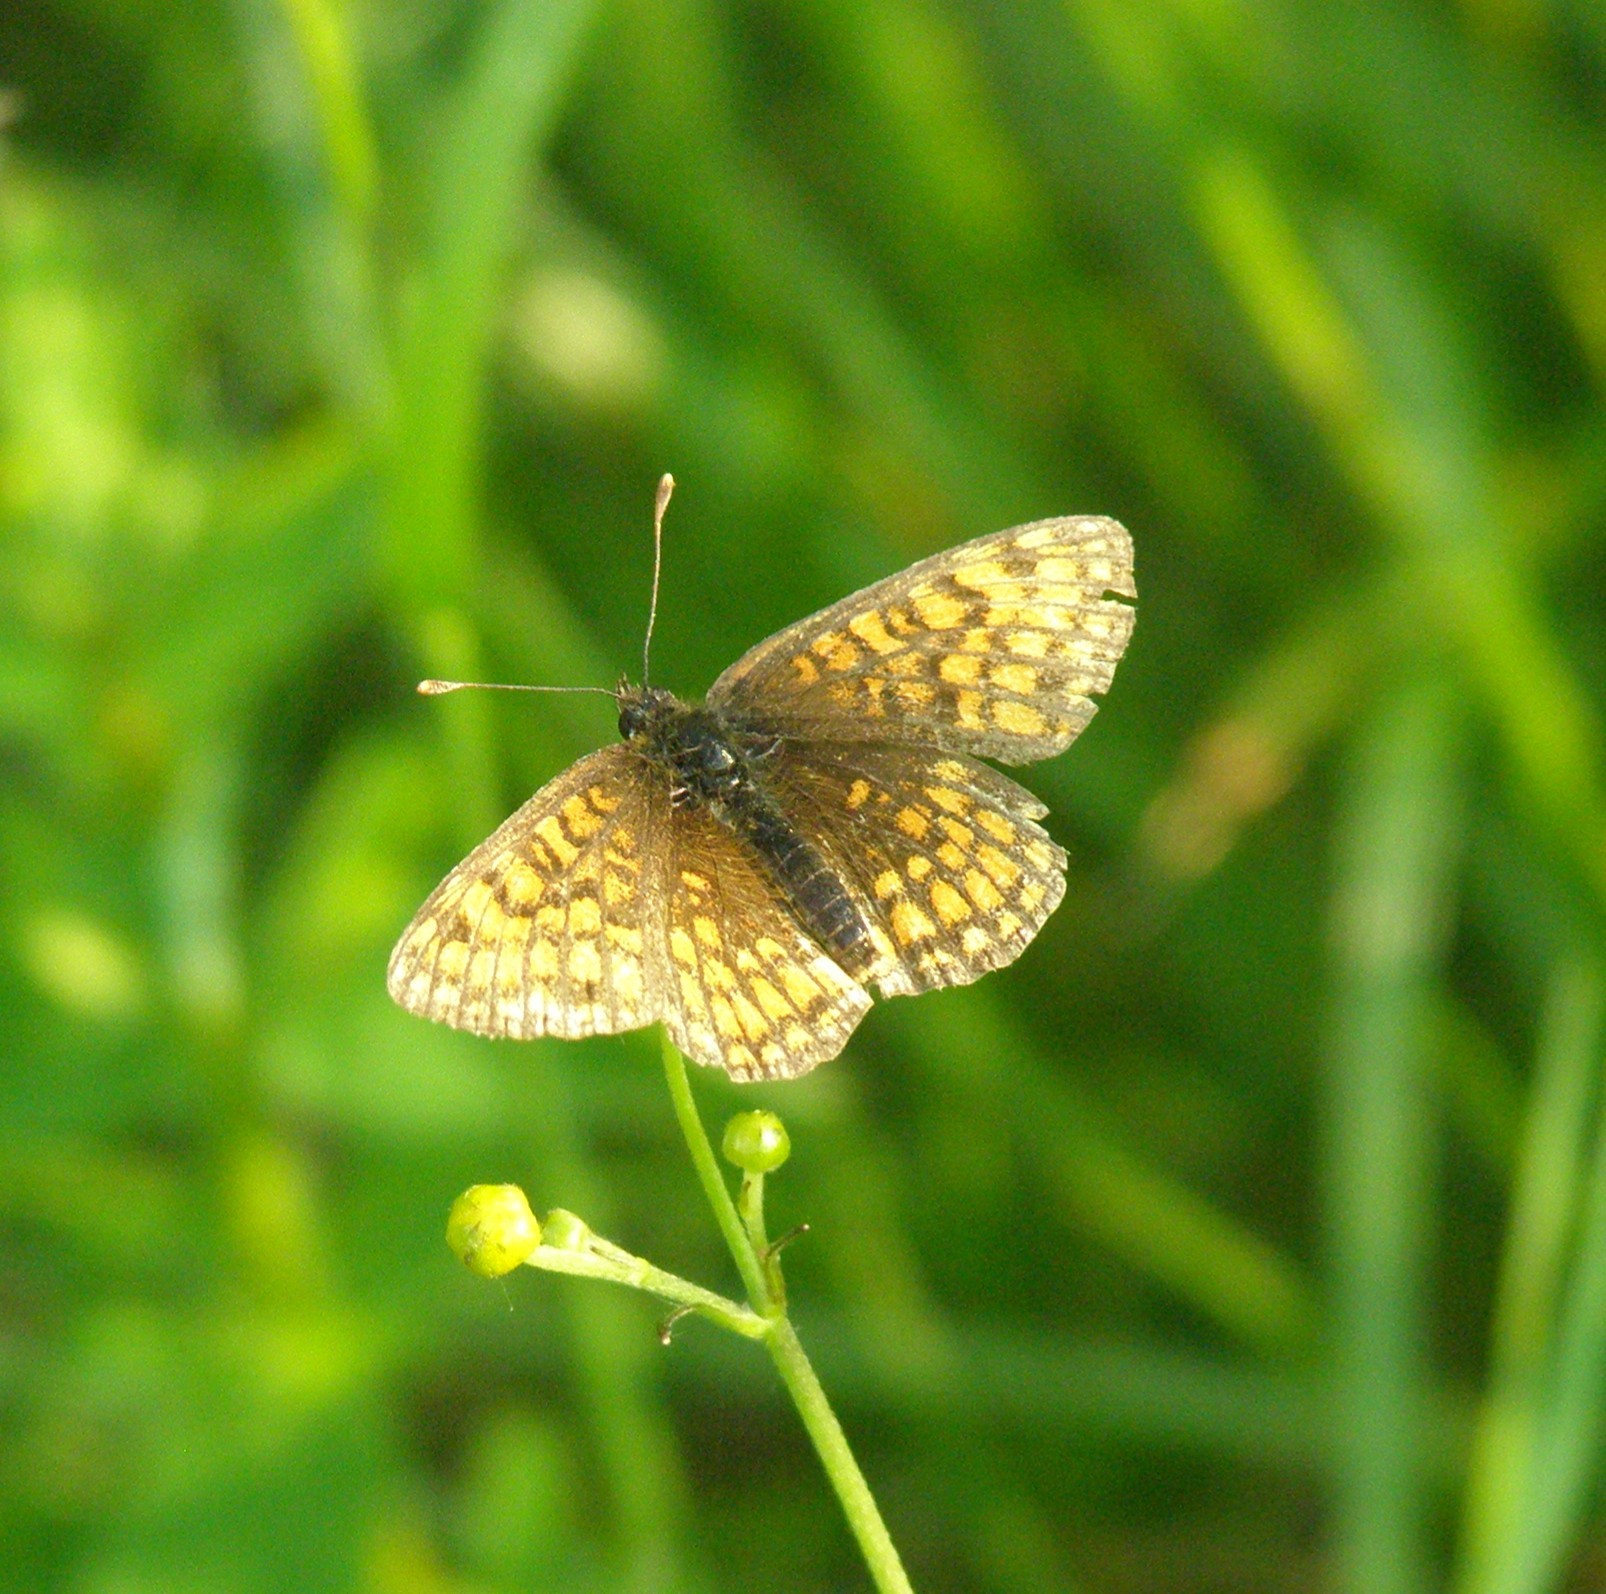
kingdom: Animalia
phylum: Arthropoda
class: Insecta
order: Lepidoptera
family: Nymphalidae
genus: Melitaea
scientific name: Melitaea athalia
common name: Heath fritillary
